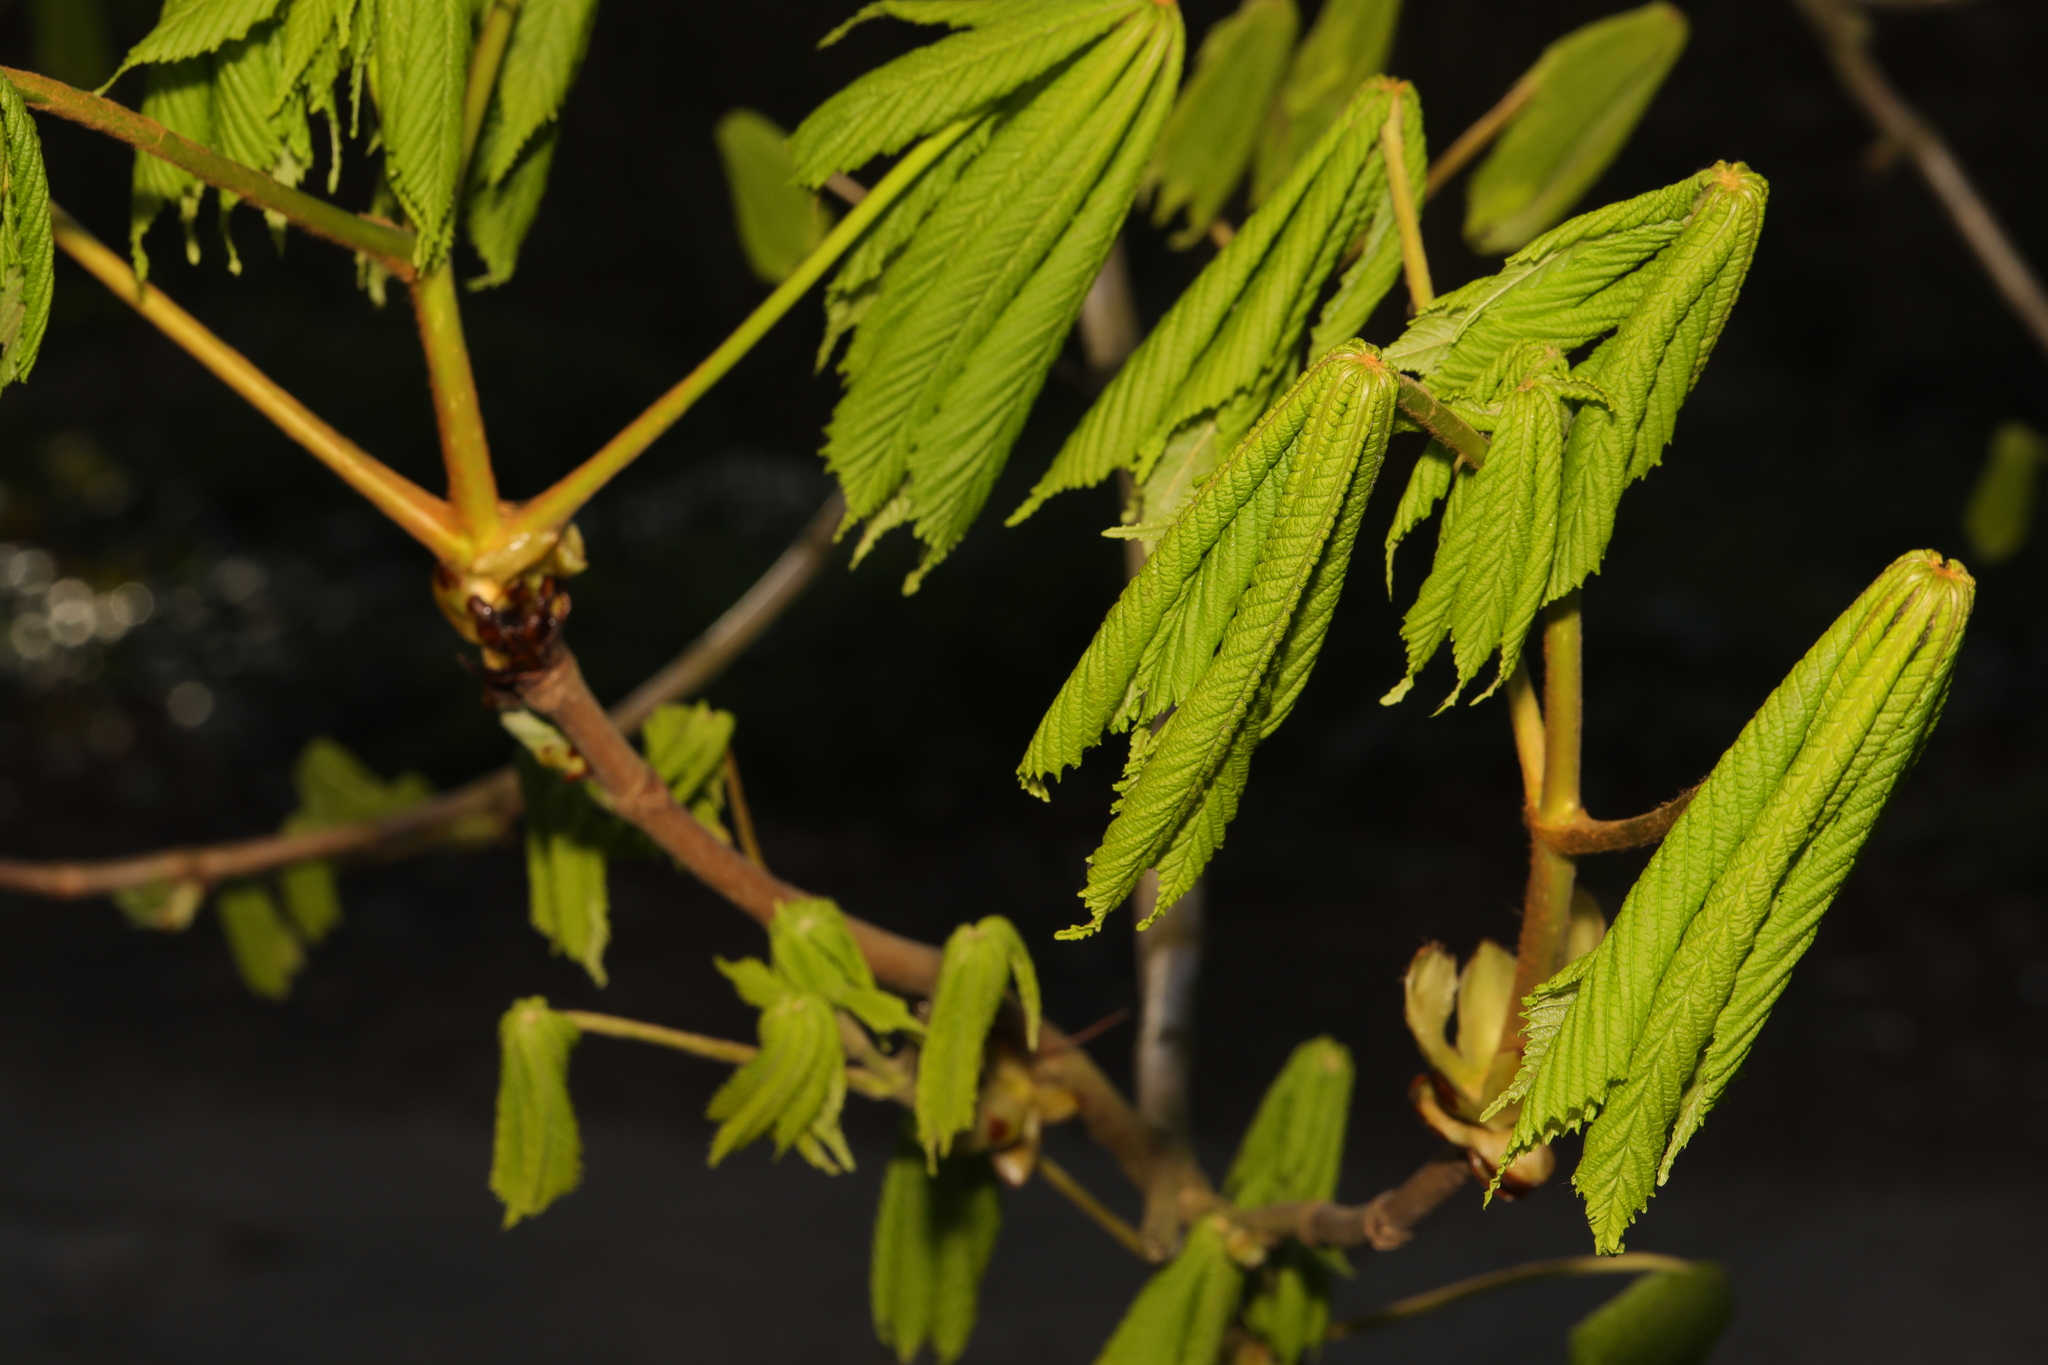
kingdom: Plantae
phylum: Tracheophyta
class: Magnoliopsida
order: Sapindales
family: Sapindaceae
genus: Aesculus
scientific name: Aesculus hippocastanum
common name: Horse-chestnut
